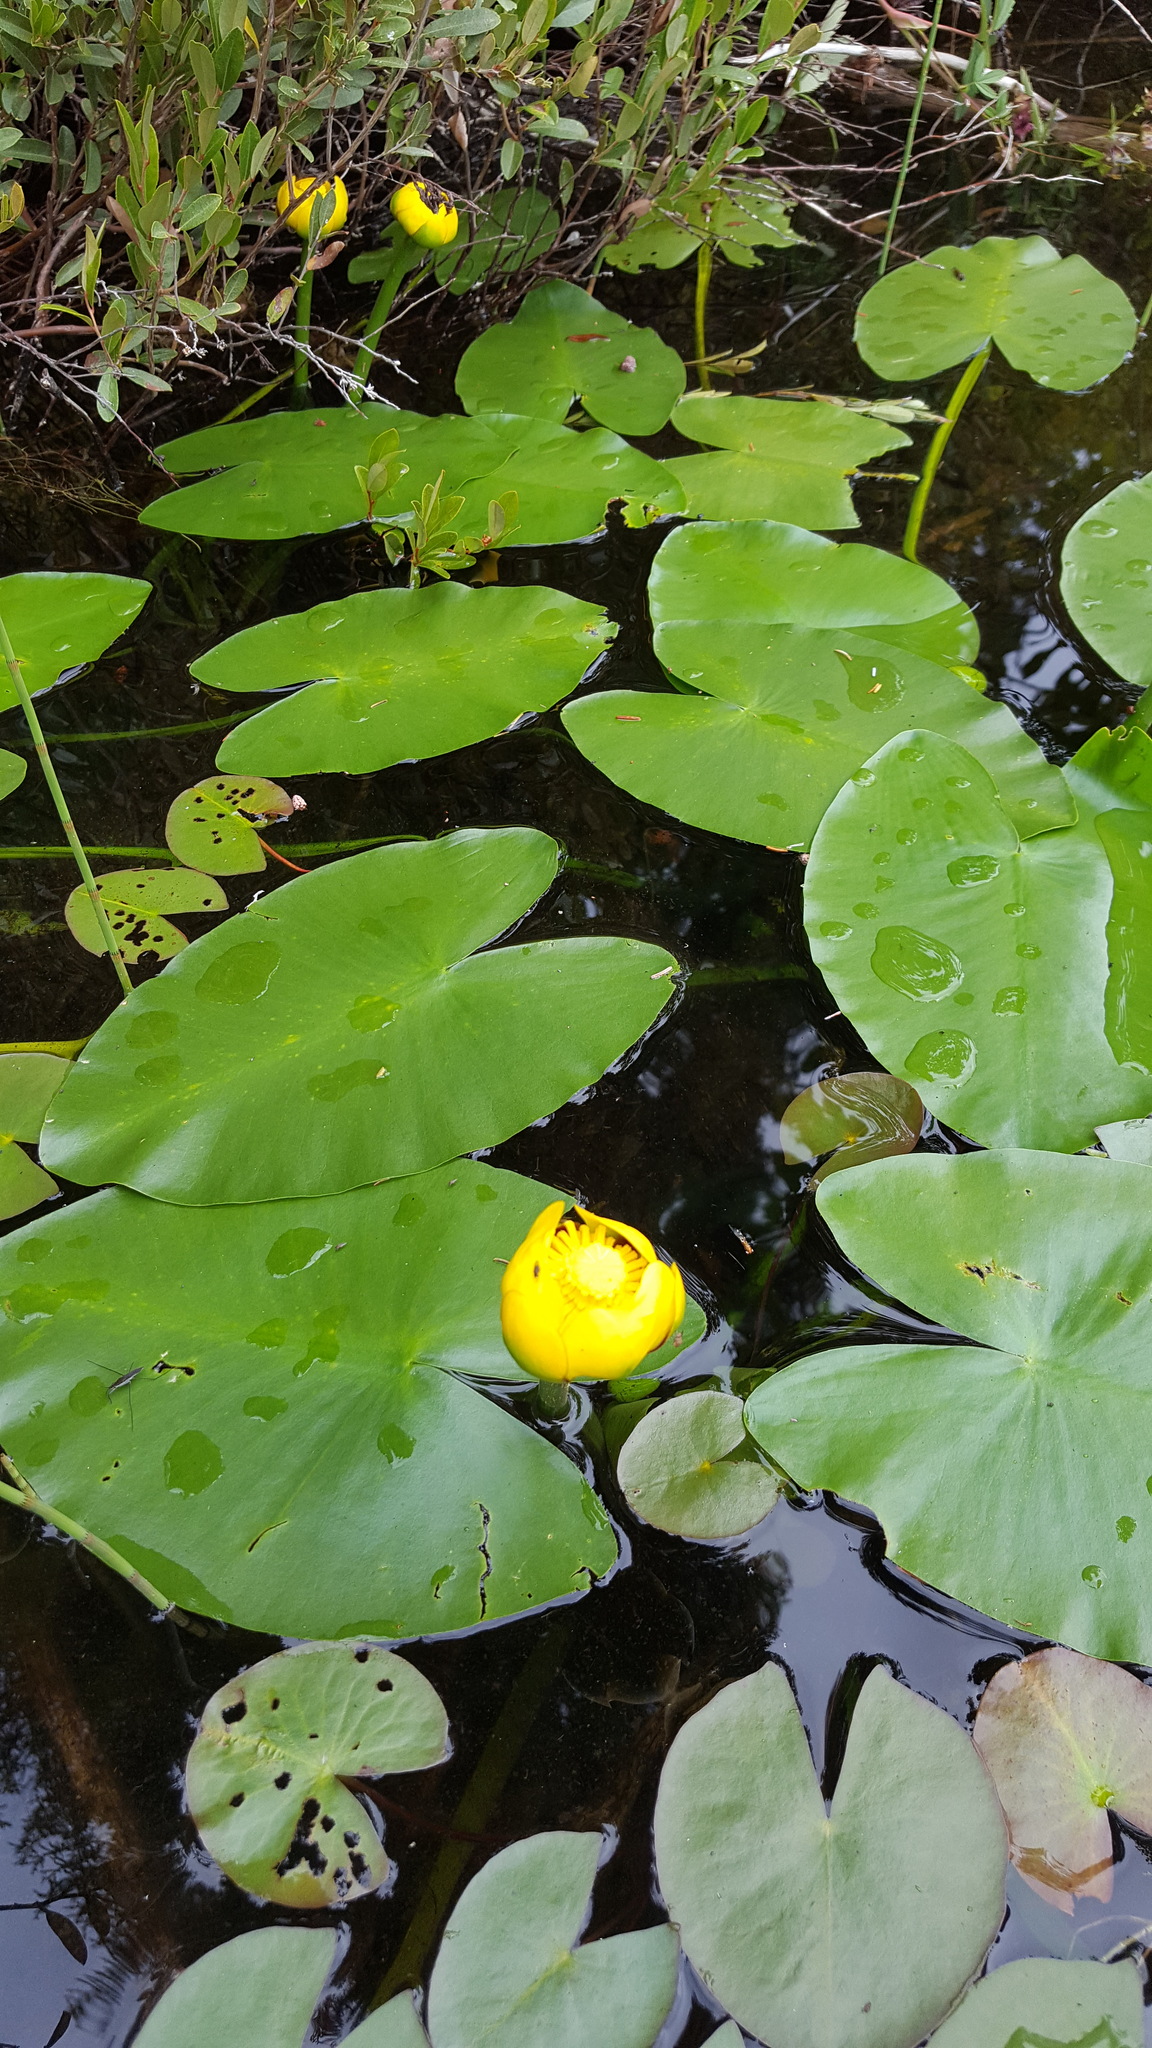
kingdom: Plantae
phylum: Tracheophyta
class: Magnoliopsida
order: Nymphaeales
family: Nymphaeaceae
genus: Nuphar
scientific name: Nuphar variegata
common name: Beaver-root
